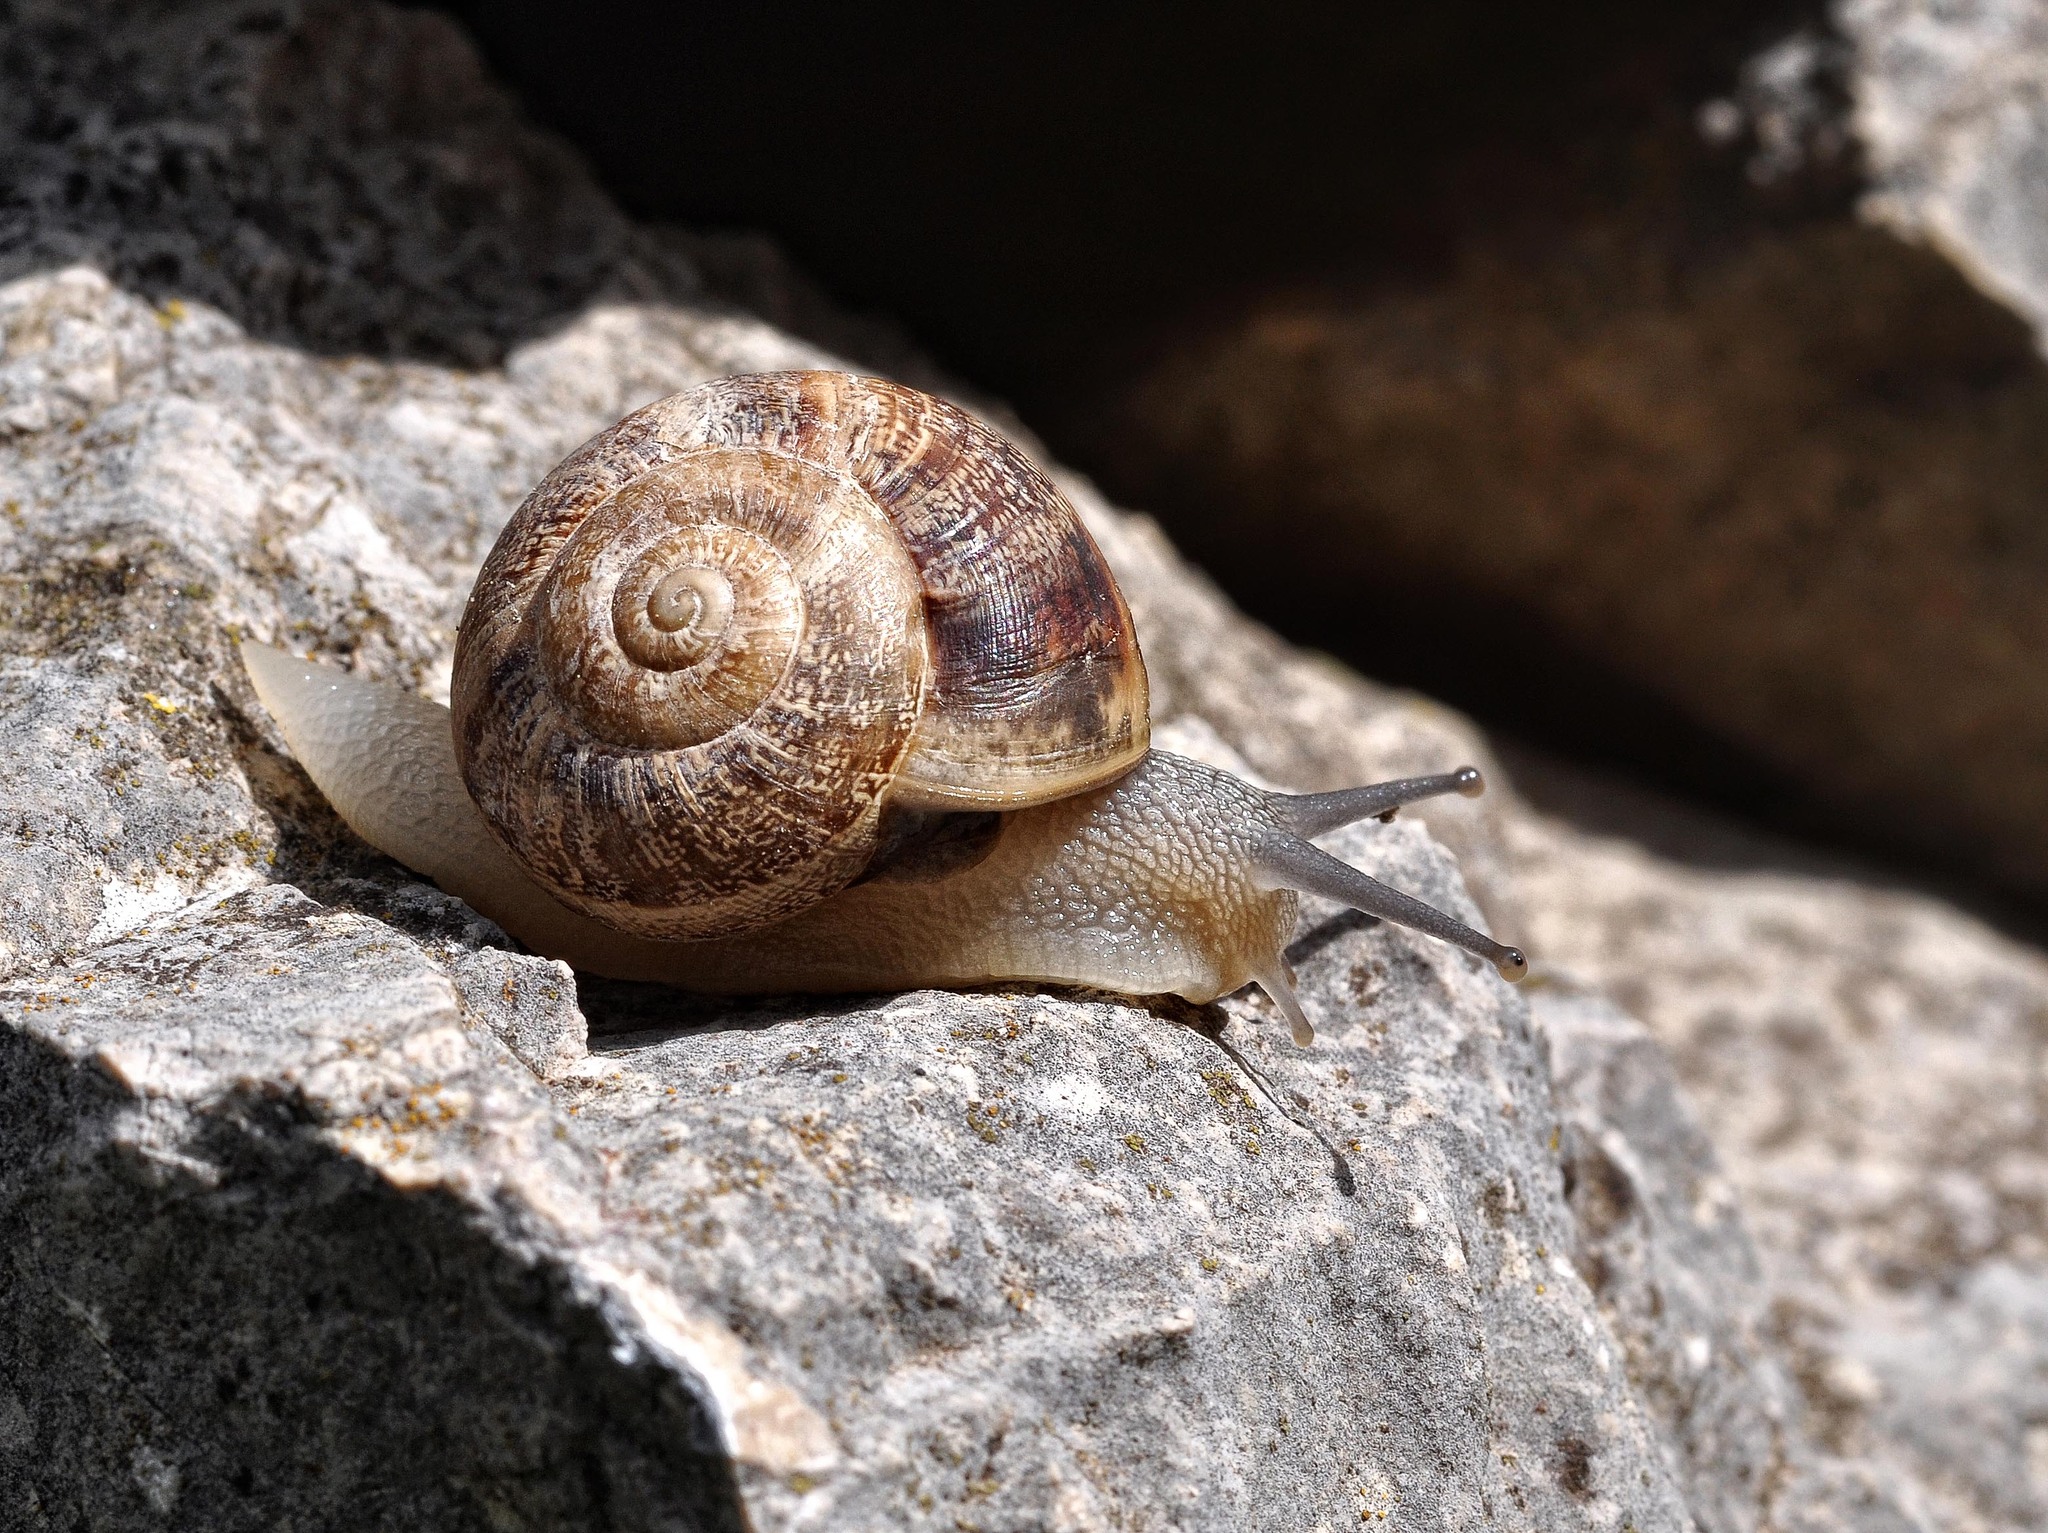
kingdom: Animalia
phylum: Mollusca
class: Gastropoda
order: Stylommatophora
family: Helicidae
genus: Eobania
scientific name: Eobania vermiculata
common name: Chocolateband snail
